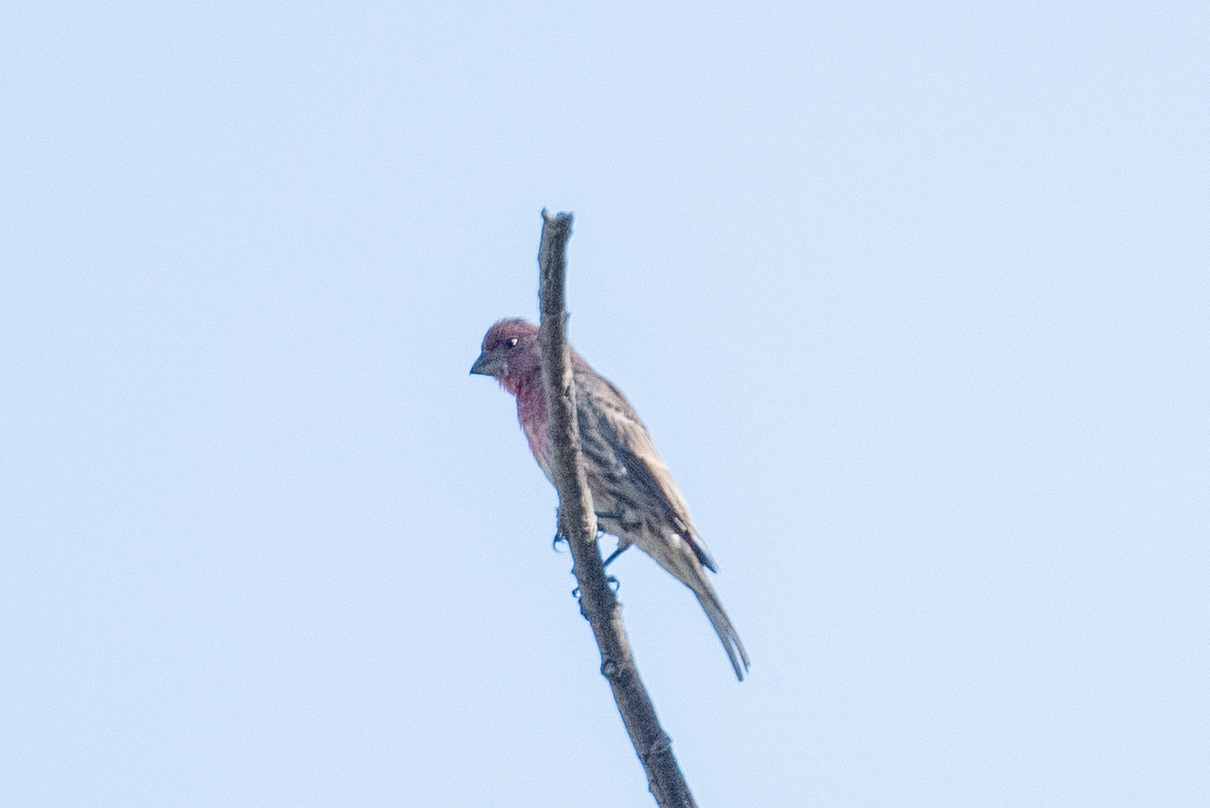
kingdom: Animalia
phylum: Chordata
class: Aves
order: Passeriformes
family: Fringillidae
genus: Haemorhous
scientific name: Haemorhous mexicanus
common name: House finch
